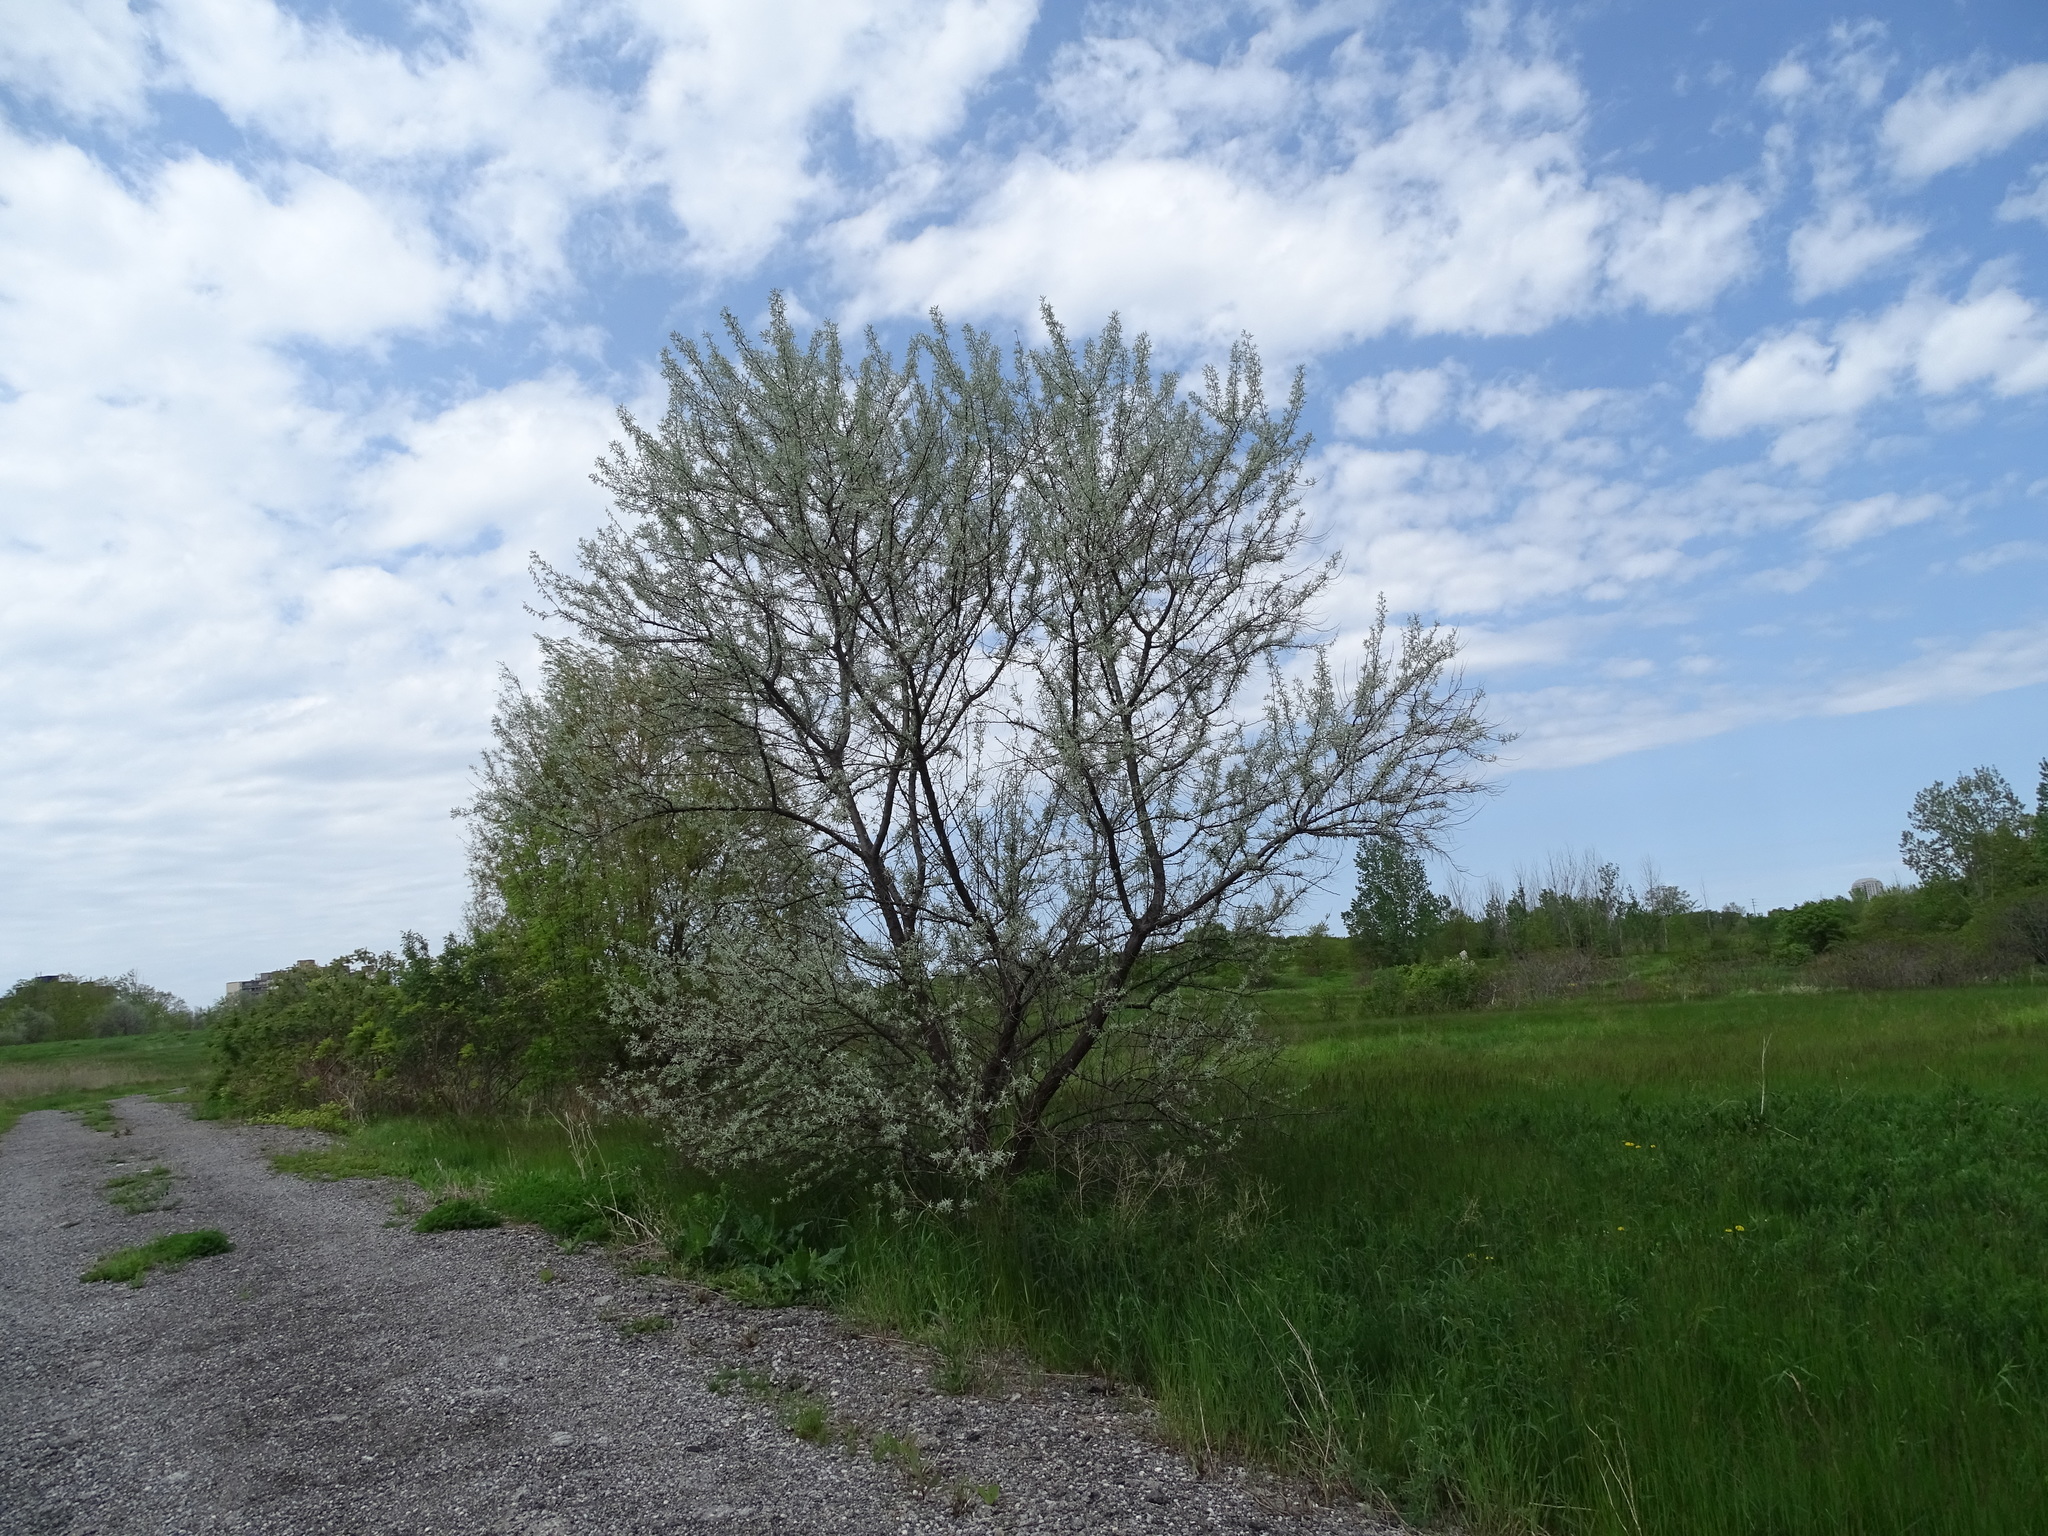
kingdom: Plantae
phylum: Tracheophyta
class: Magnoliopsida
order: Rosales
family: Elaeagnaceae
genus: Elaeagnus
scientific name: Elaeagnus angustifolia
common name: Russian olive
